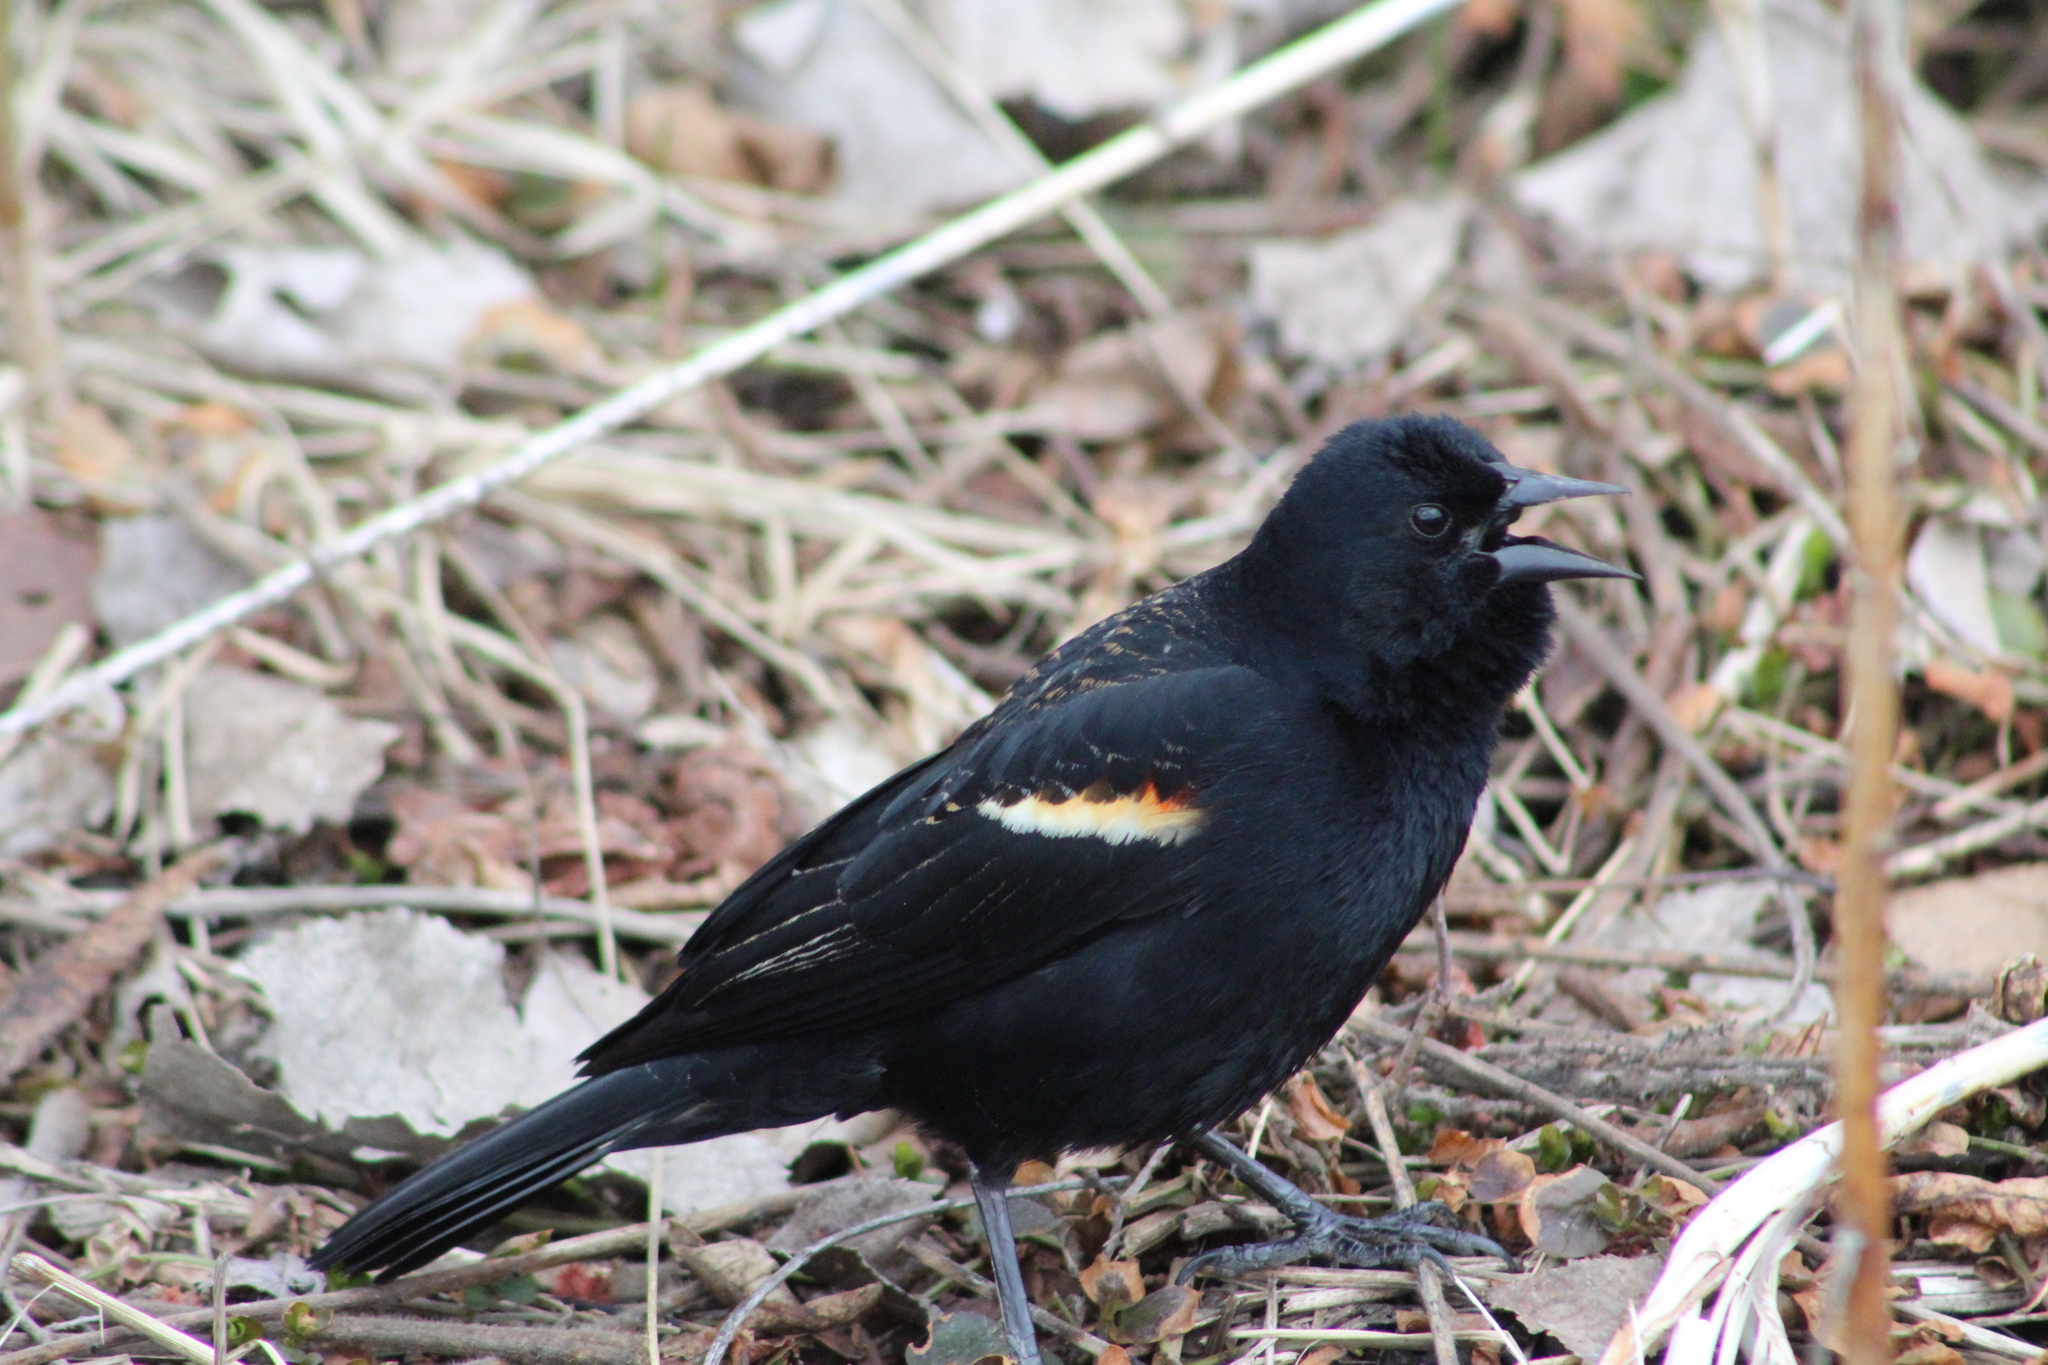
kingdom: Animalia
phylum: Chordata
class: Aves
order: Passeriformes
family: Icteridae
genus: Agelaius
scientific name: Agelaius phoeniceus
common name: Red-winged blackbird
